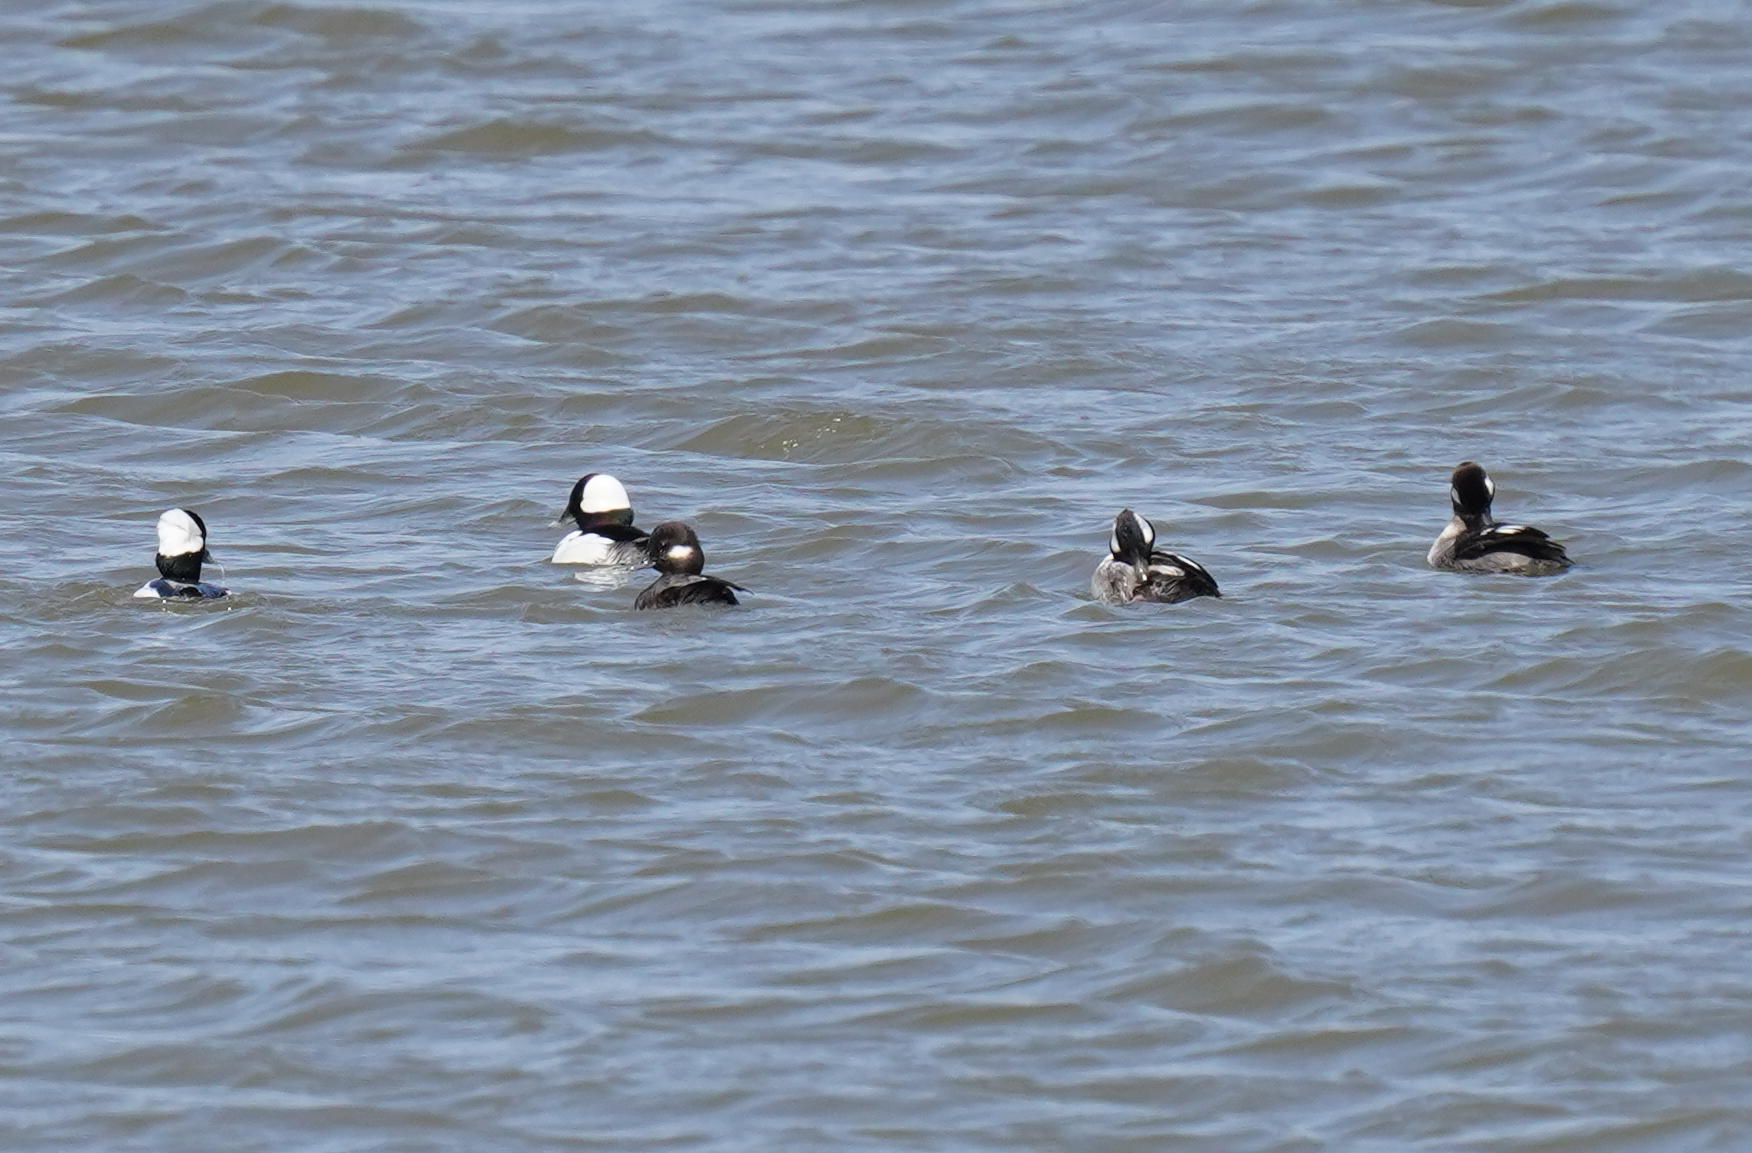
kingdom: Animalia
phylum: Chordata
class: Aves
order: Anseriformes
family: Anatidae
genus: Bucephala
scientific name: Bucephala albeola
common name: Bufflehead
